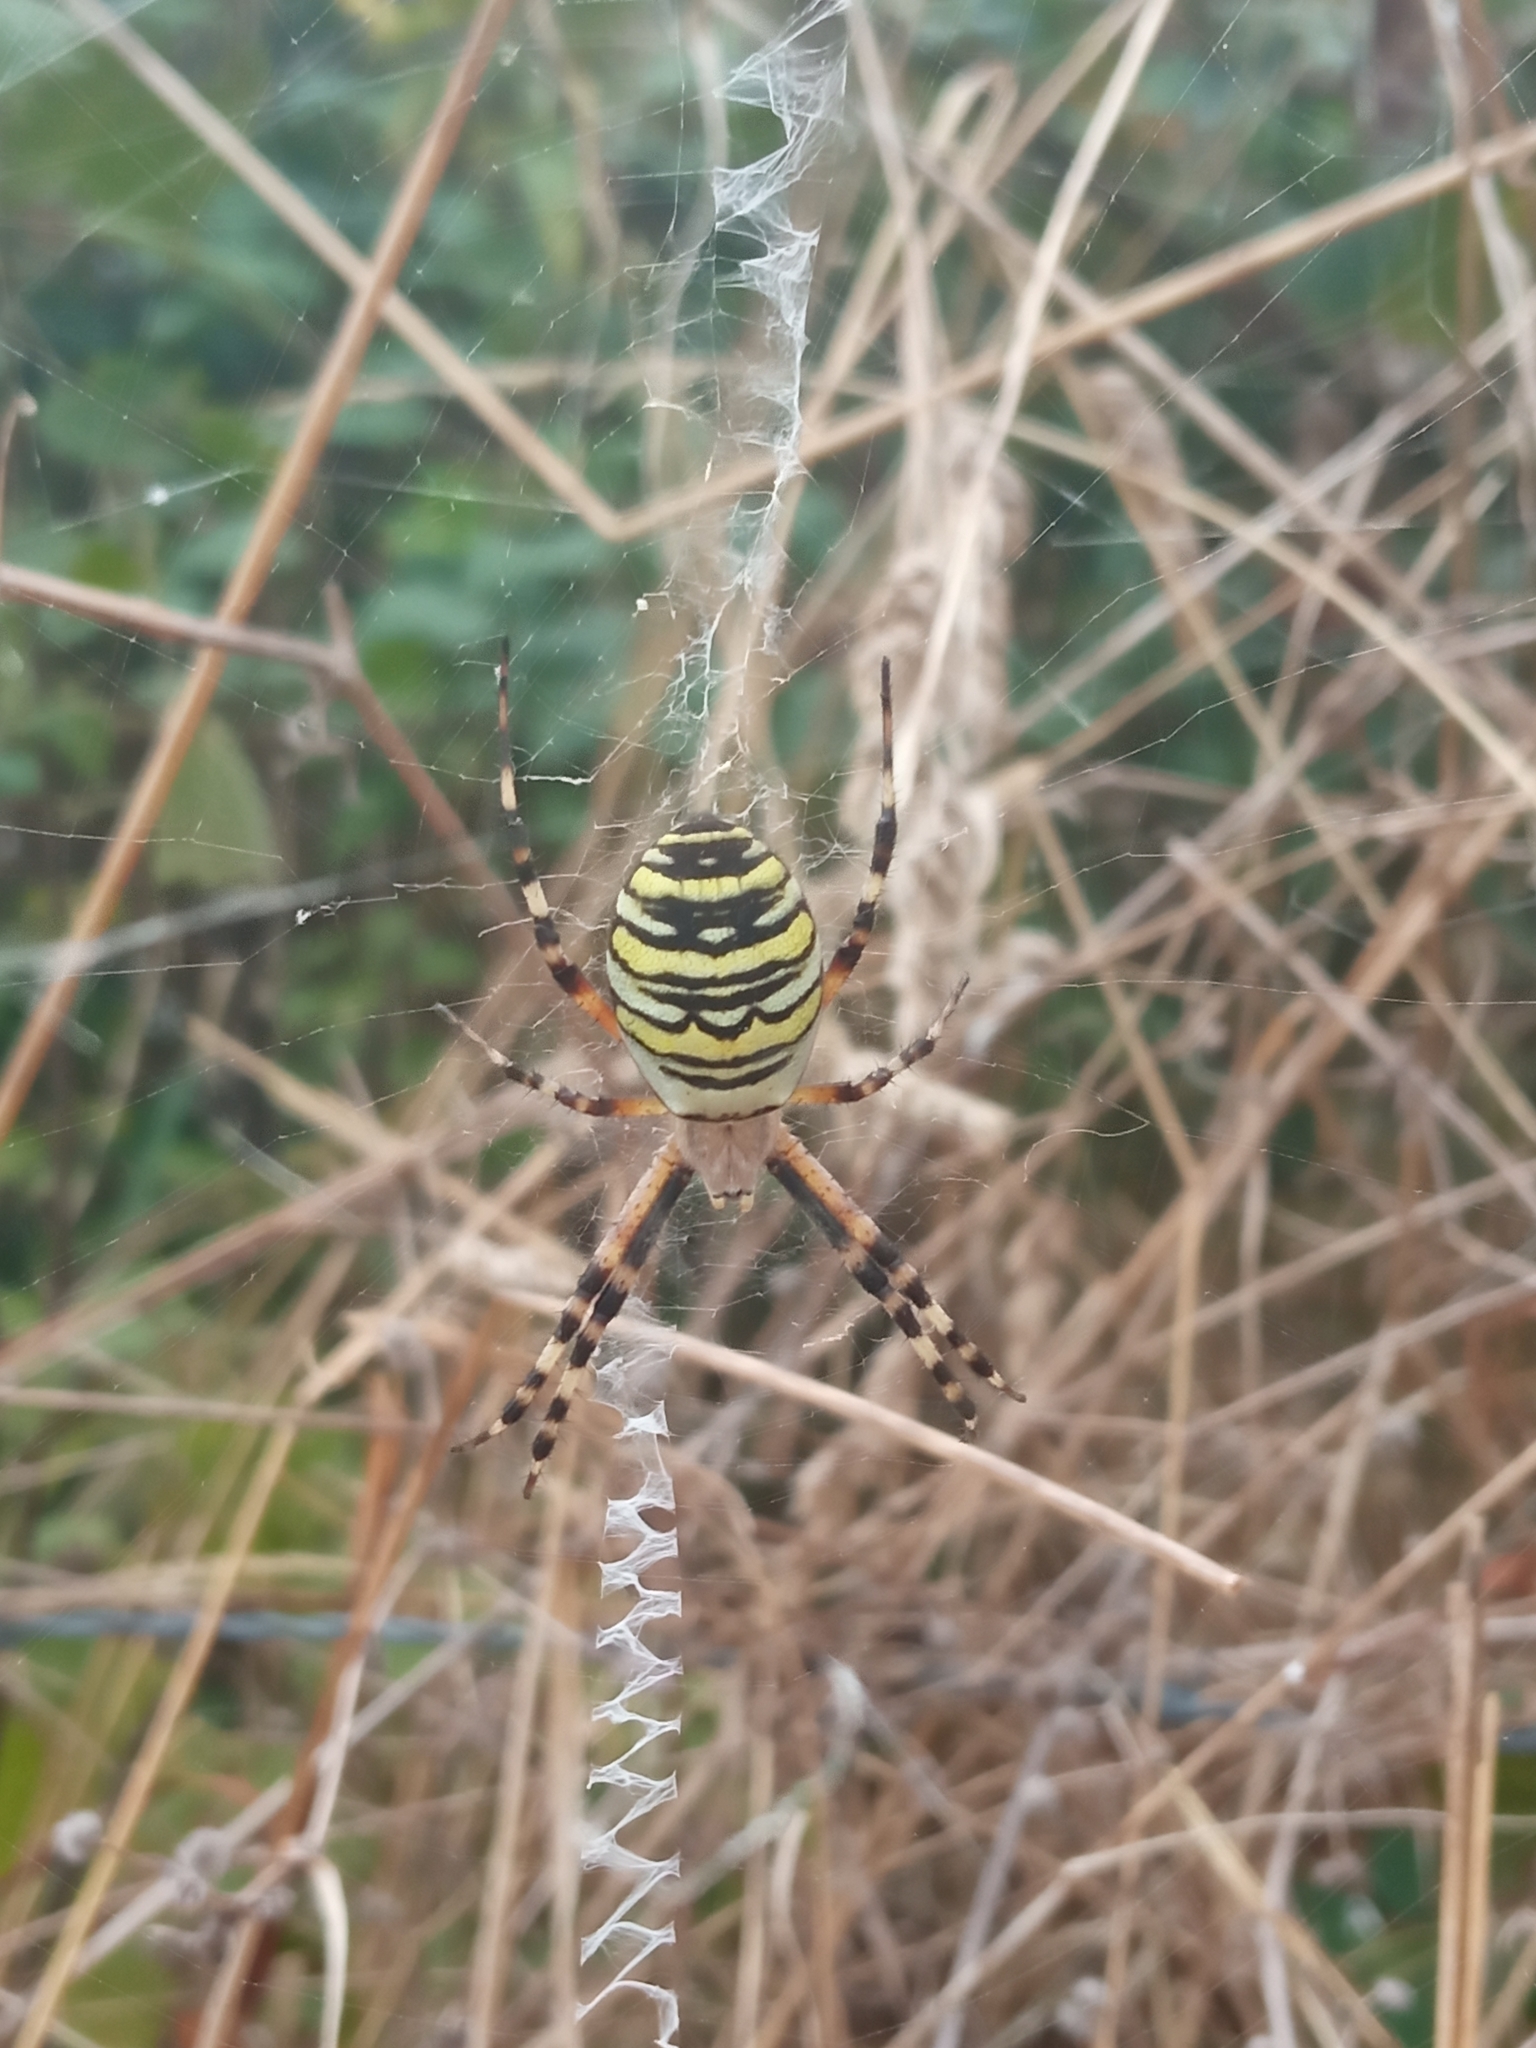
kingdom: Animalia
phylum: Arthropoda
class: Arachnida
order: Araneae
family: Araneidae
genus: Argiope
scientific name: Argiope bruennichi
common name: Wasp spider
